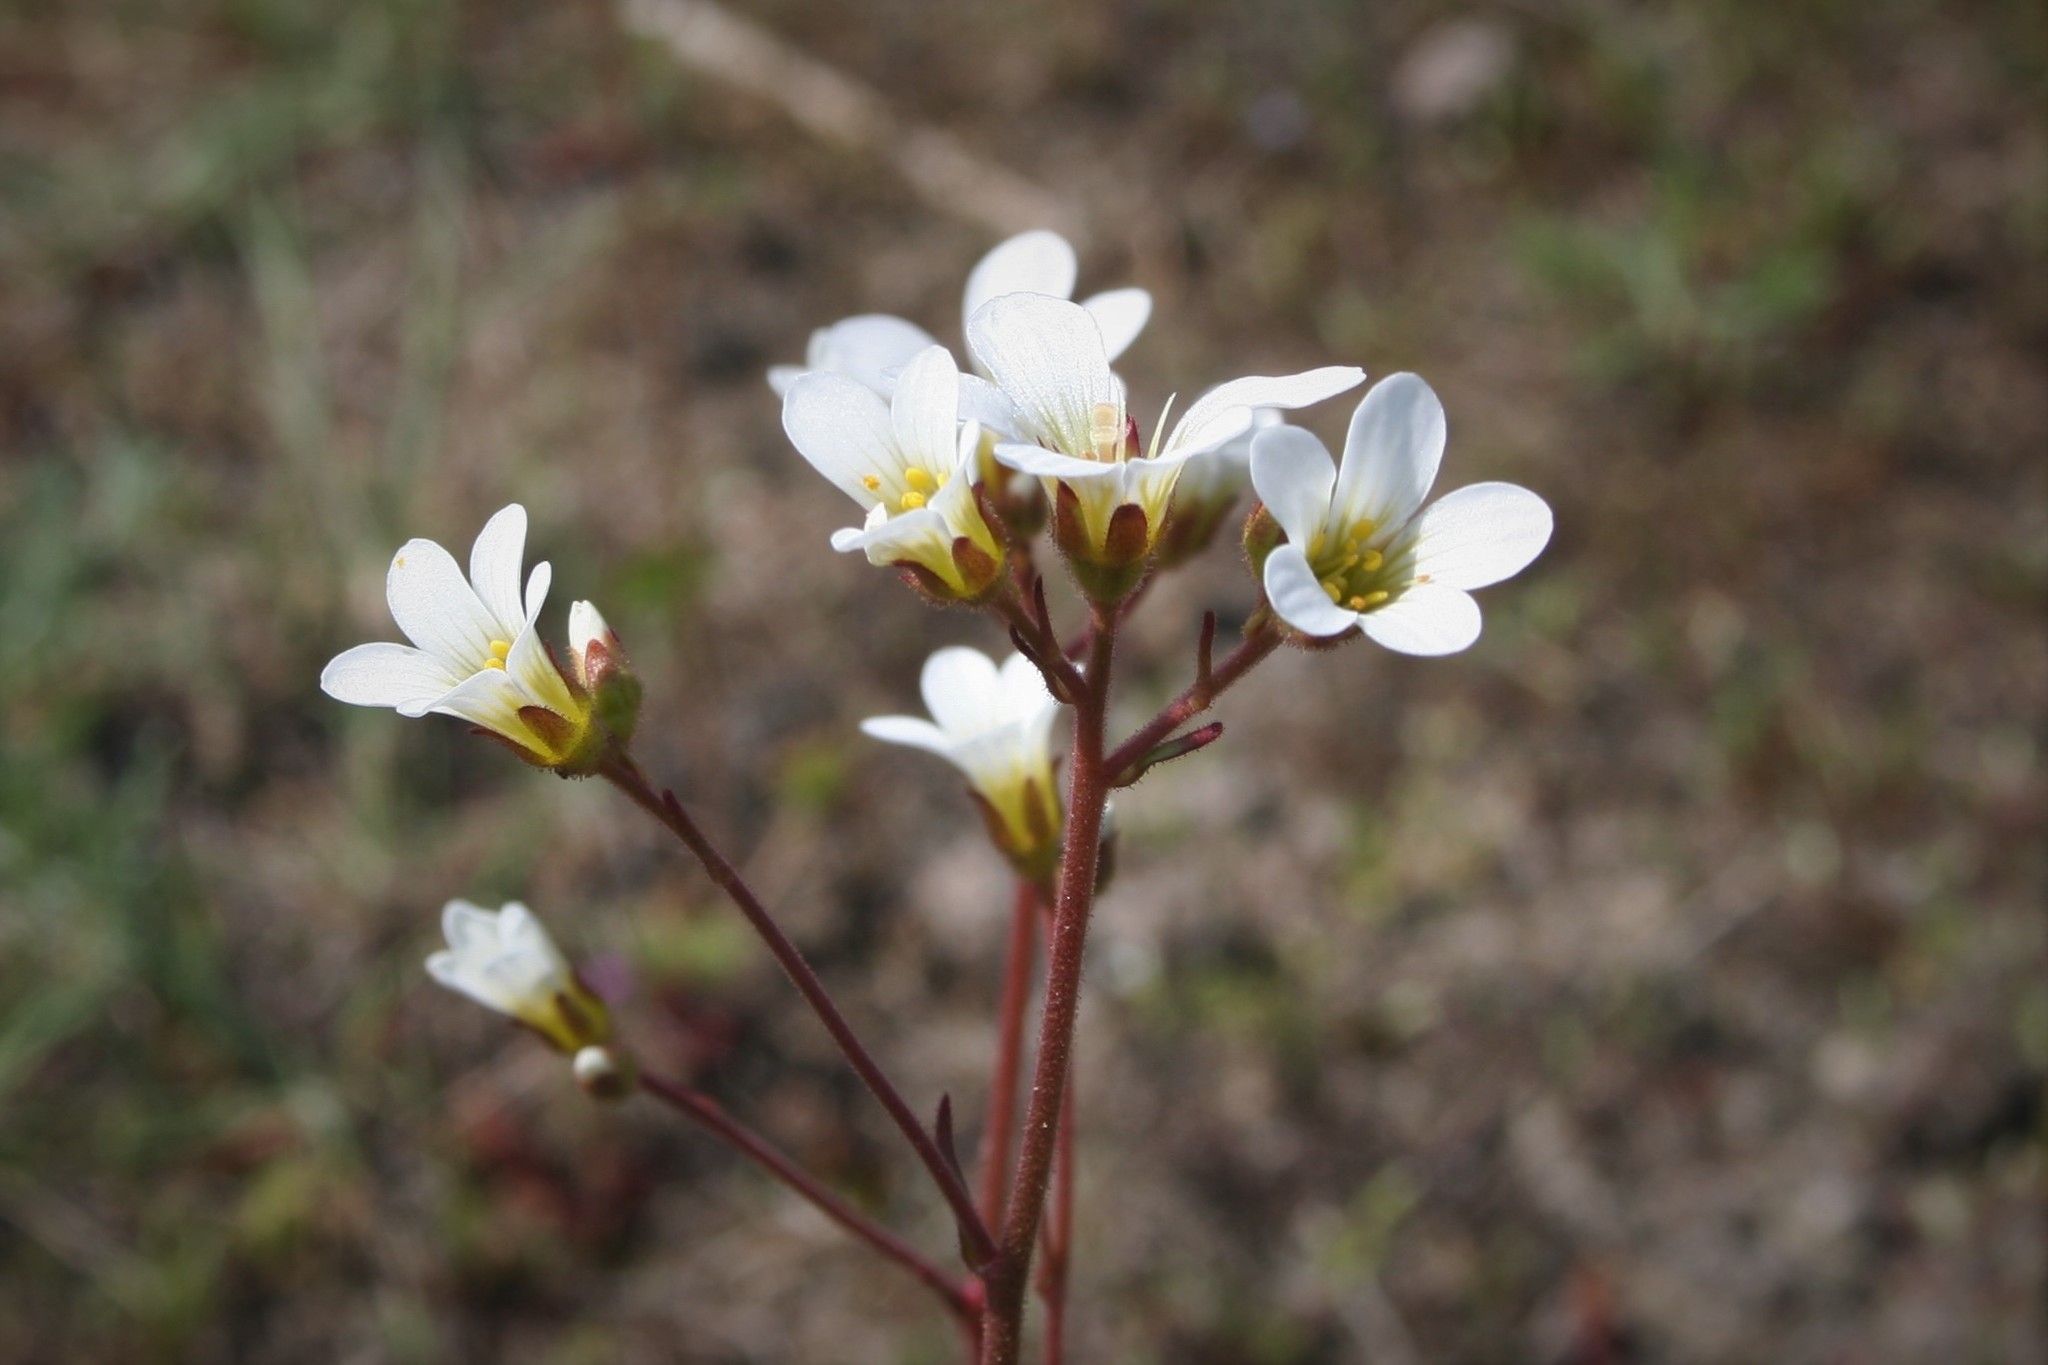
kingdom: Plantae
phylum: Tracheophyta
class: Magnoliopsida
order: Saxifragales
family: Saxifragaceae
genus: Saxifraga
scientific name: Saxifraga granulata
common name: Meadow saxifrage
